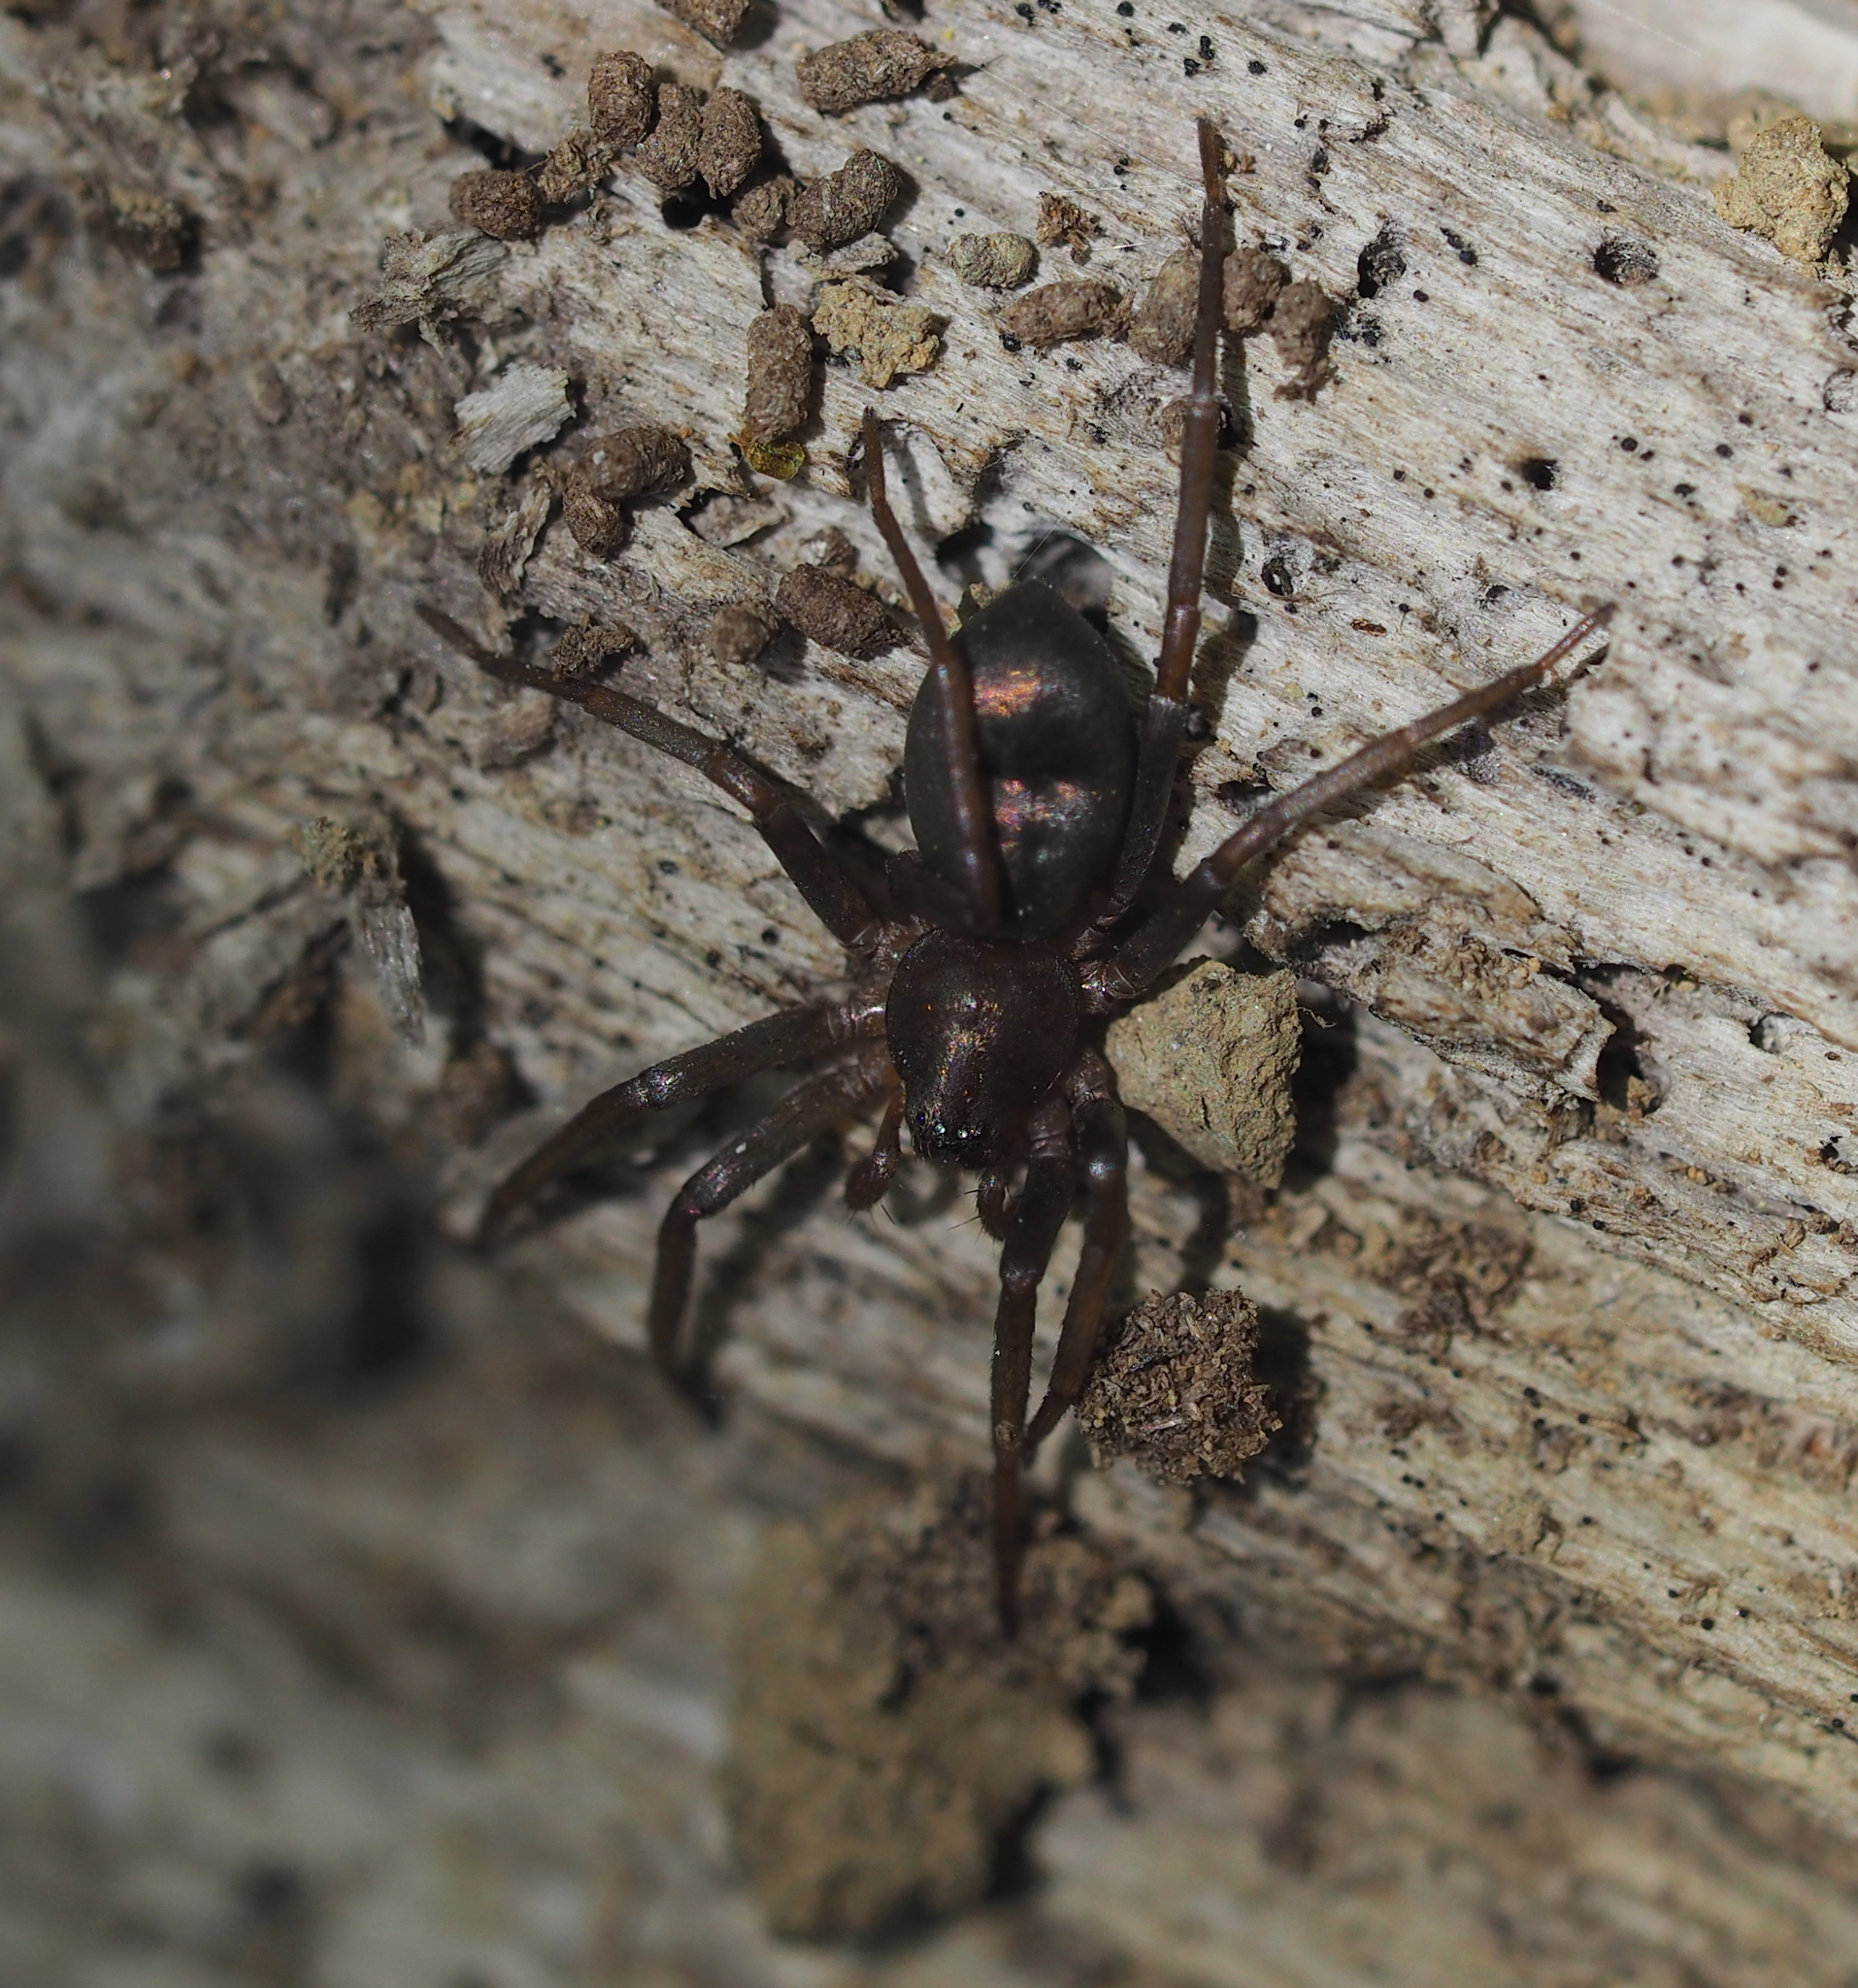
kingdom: Animalia
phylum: Arthropoda
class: Arachnida
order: Araneae
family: Liocranidae
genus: Sagana
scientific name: Sagana rutilans
